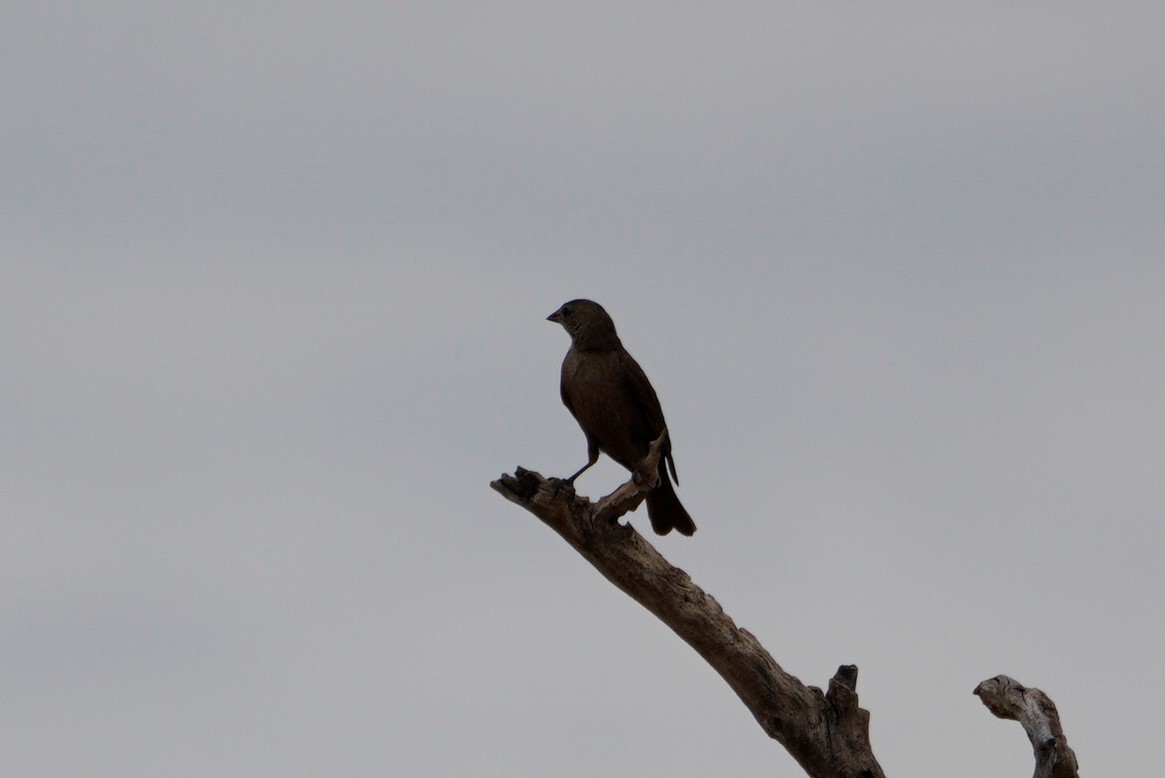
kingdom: Animalia
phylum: Chordata
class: Aves
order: Passeriformes
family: Icteridae
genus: Molothrus
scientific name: Molothrus ater
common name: Brown-headed cowbird
